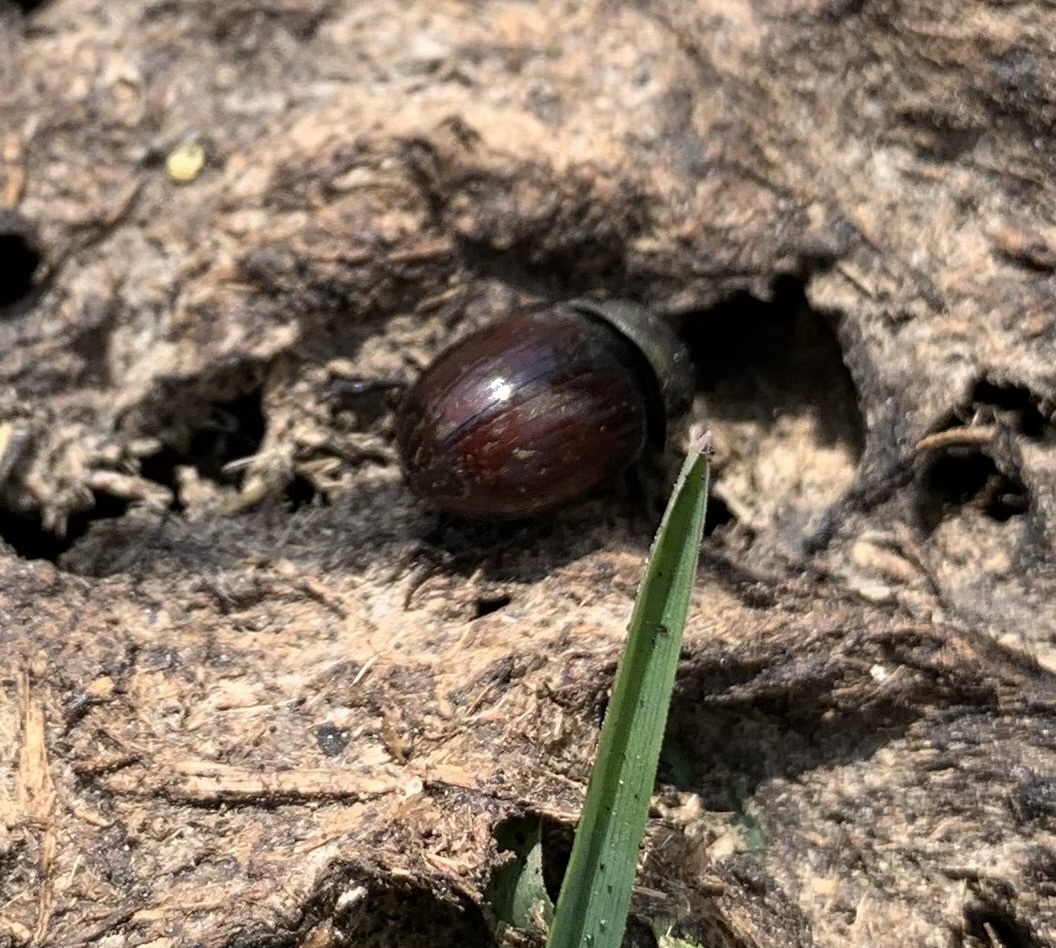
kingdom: Animalia
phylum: Arthropoda
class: Insecta
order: Coleoptera
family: Scarabaeidae
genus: Teuchestes
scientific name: Teuchestes fossor
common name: Digger small dung beetle
